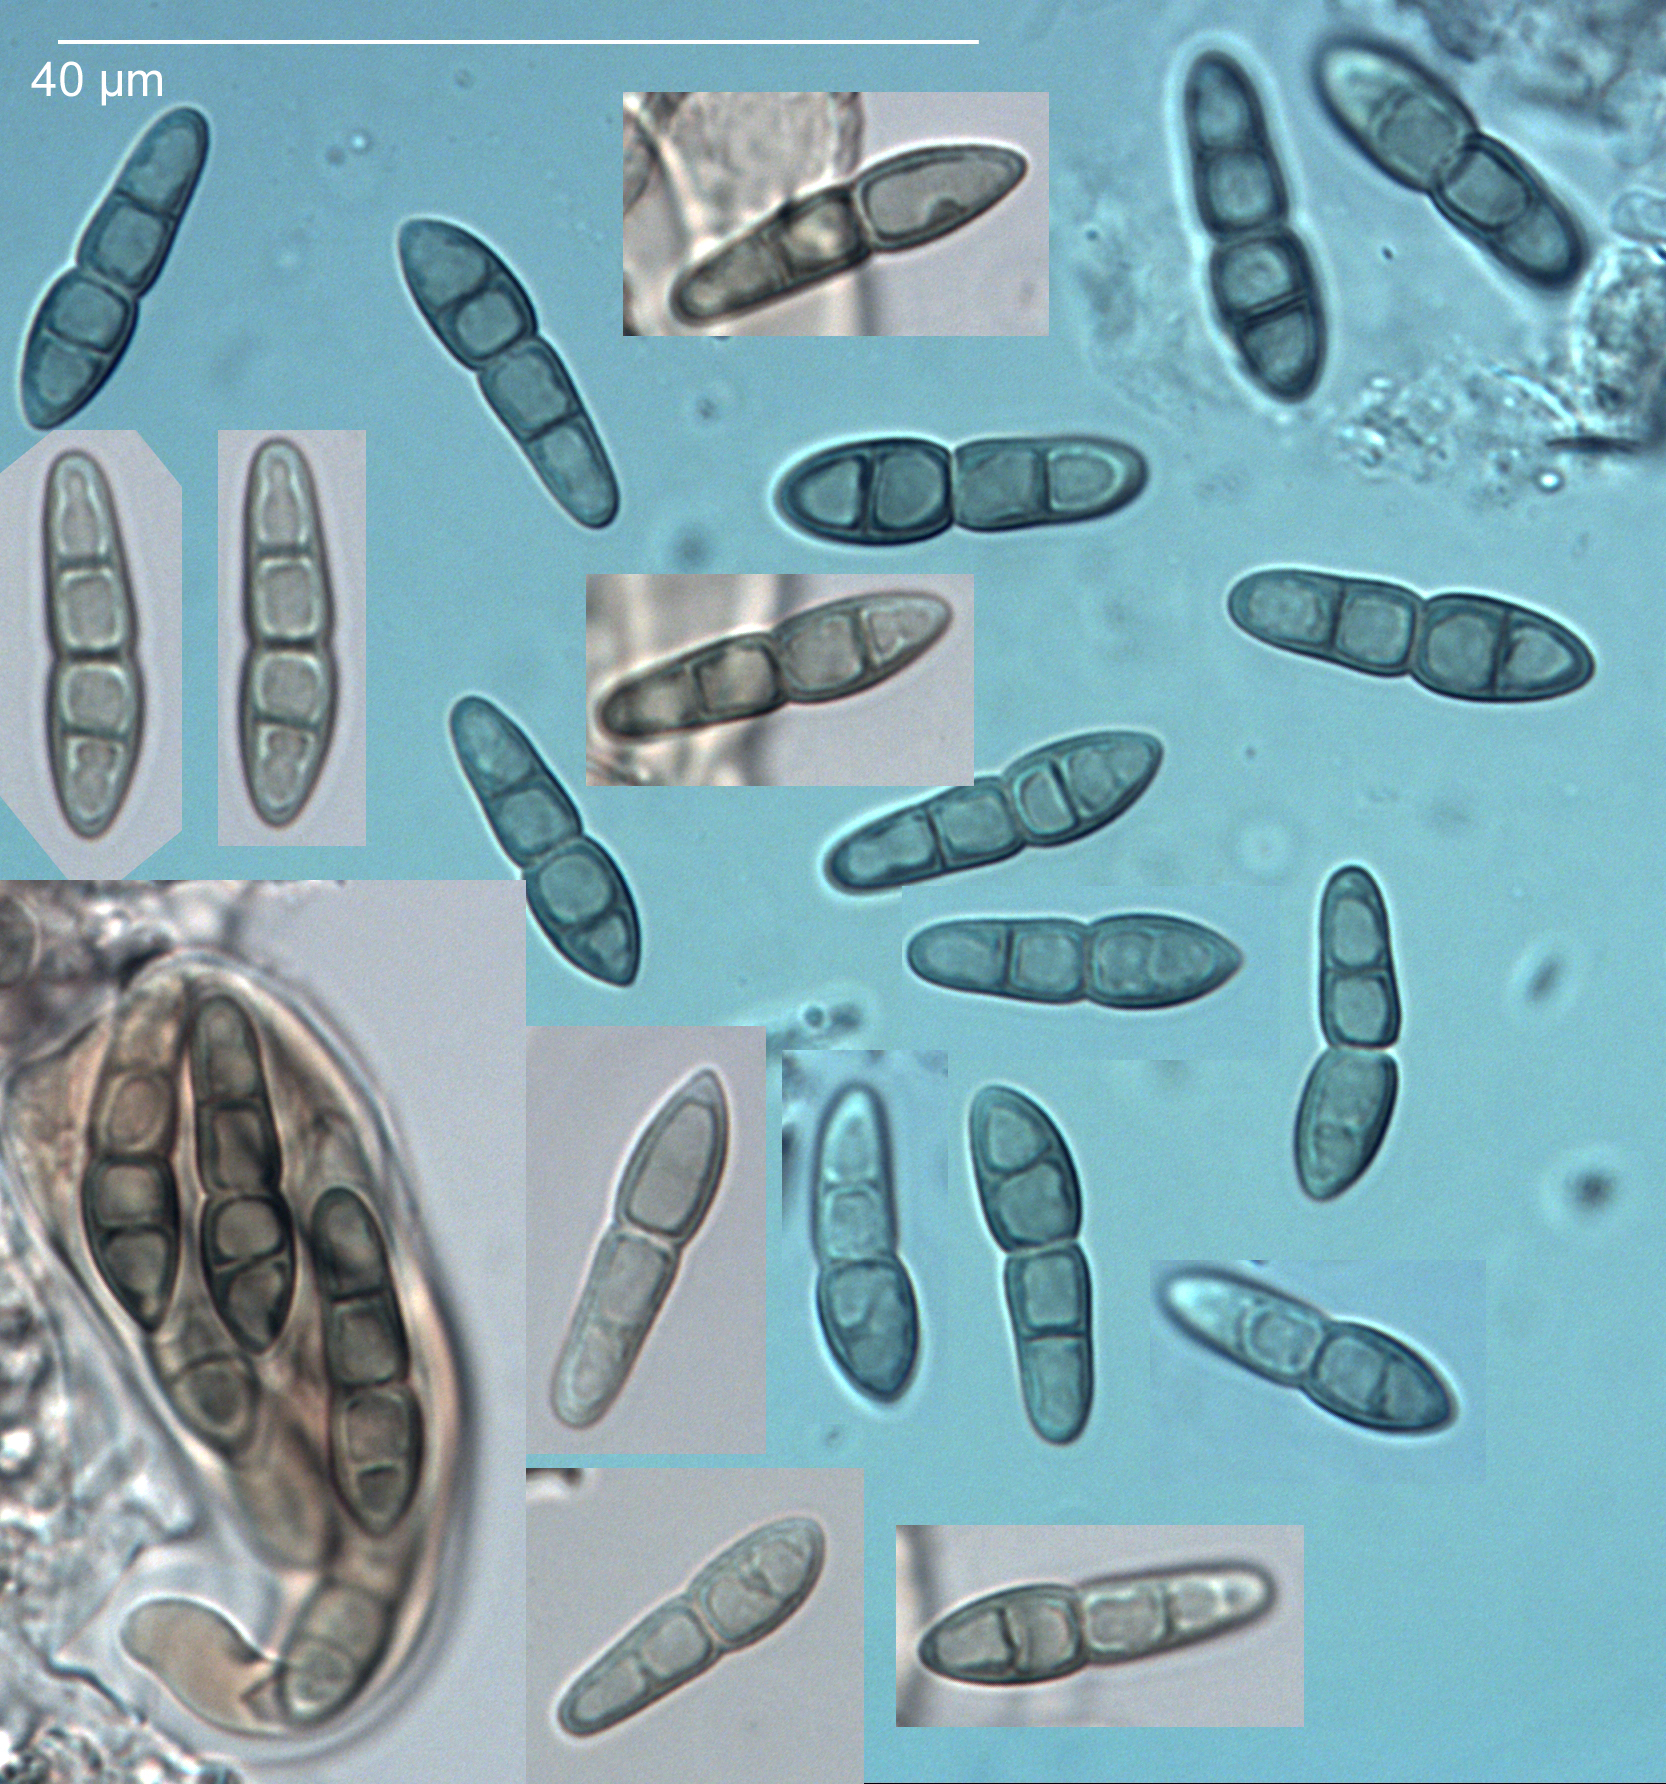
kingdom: Fungi
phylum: Ascomycota
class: Dothideomycetes
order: Pleosporales
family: Phaeosphaeriaceae
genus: Phaeosphaeria
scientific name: Phaeosphaeria eustoma
